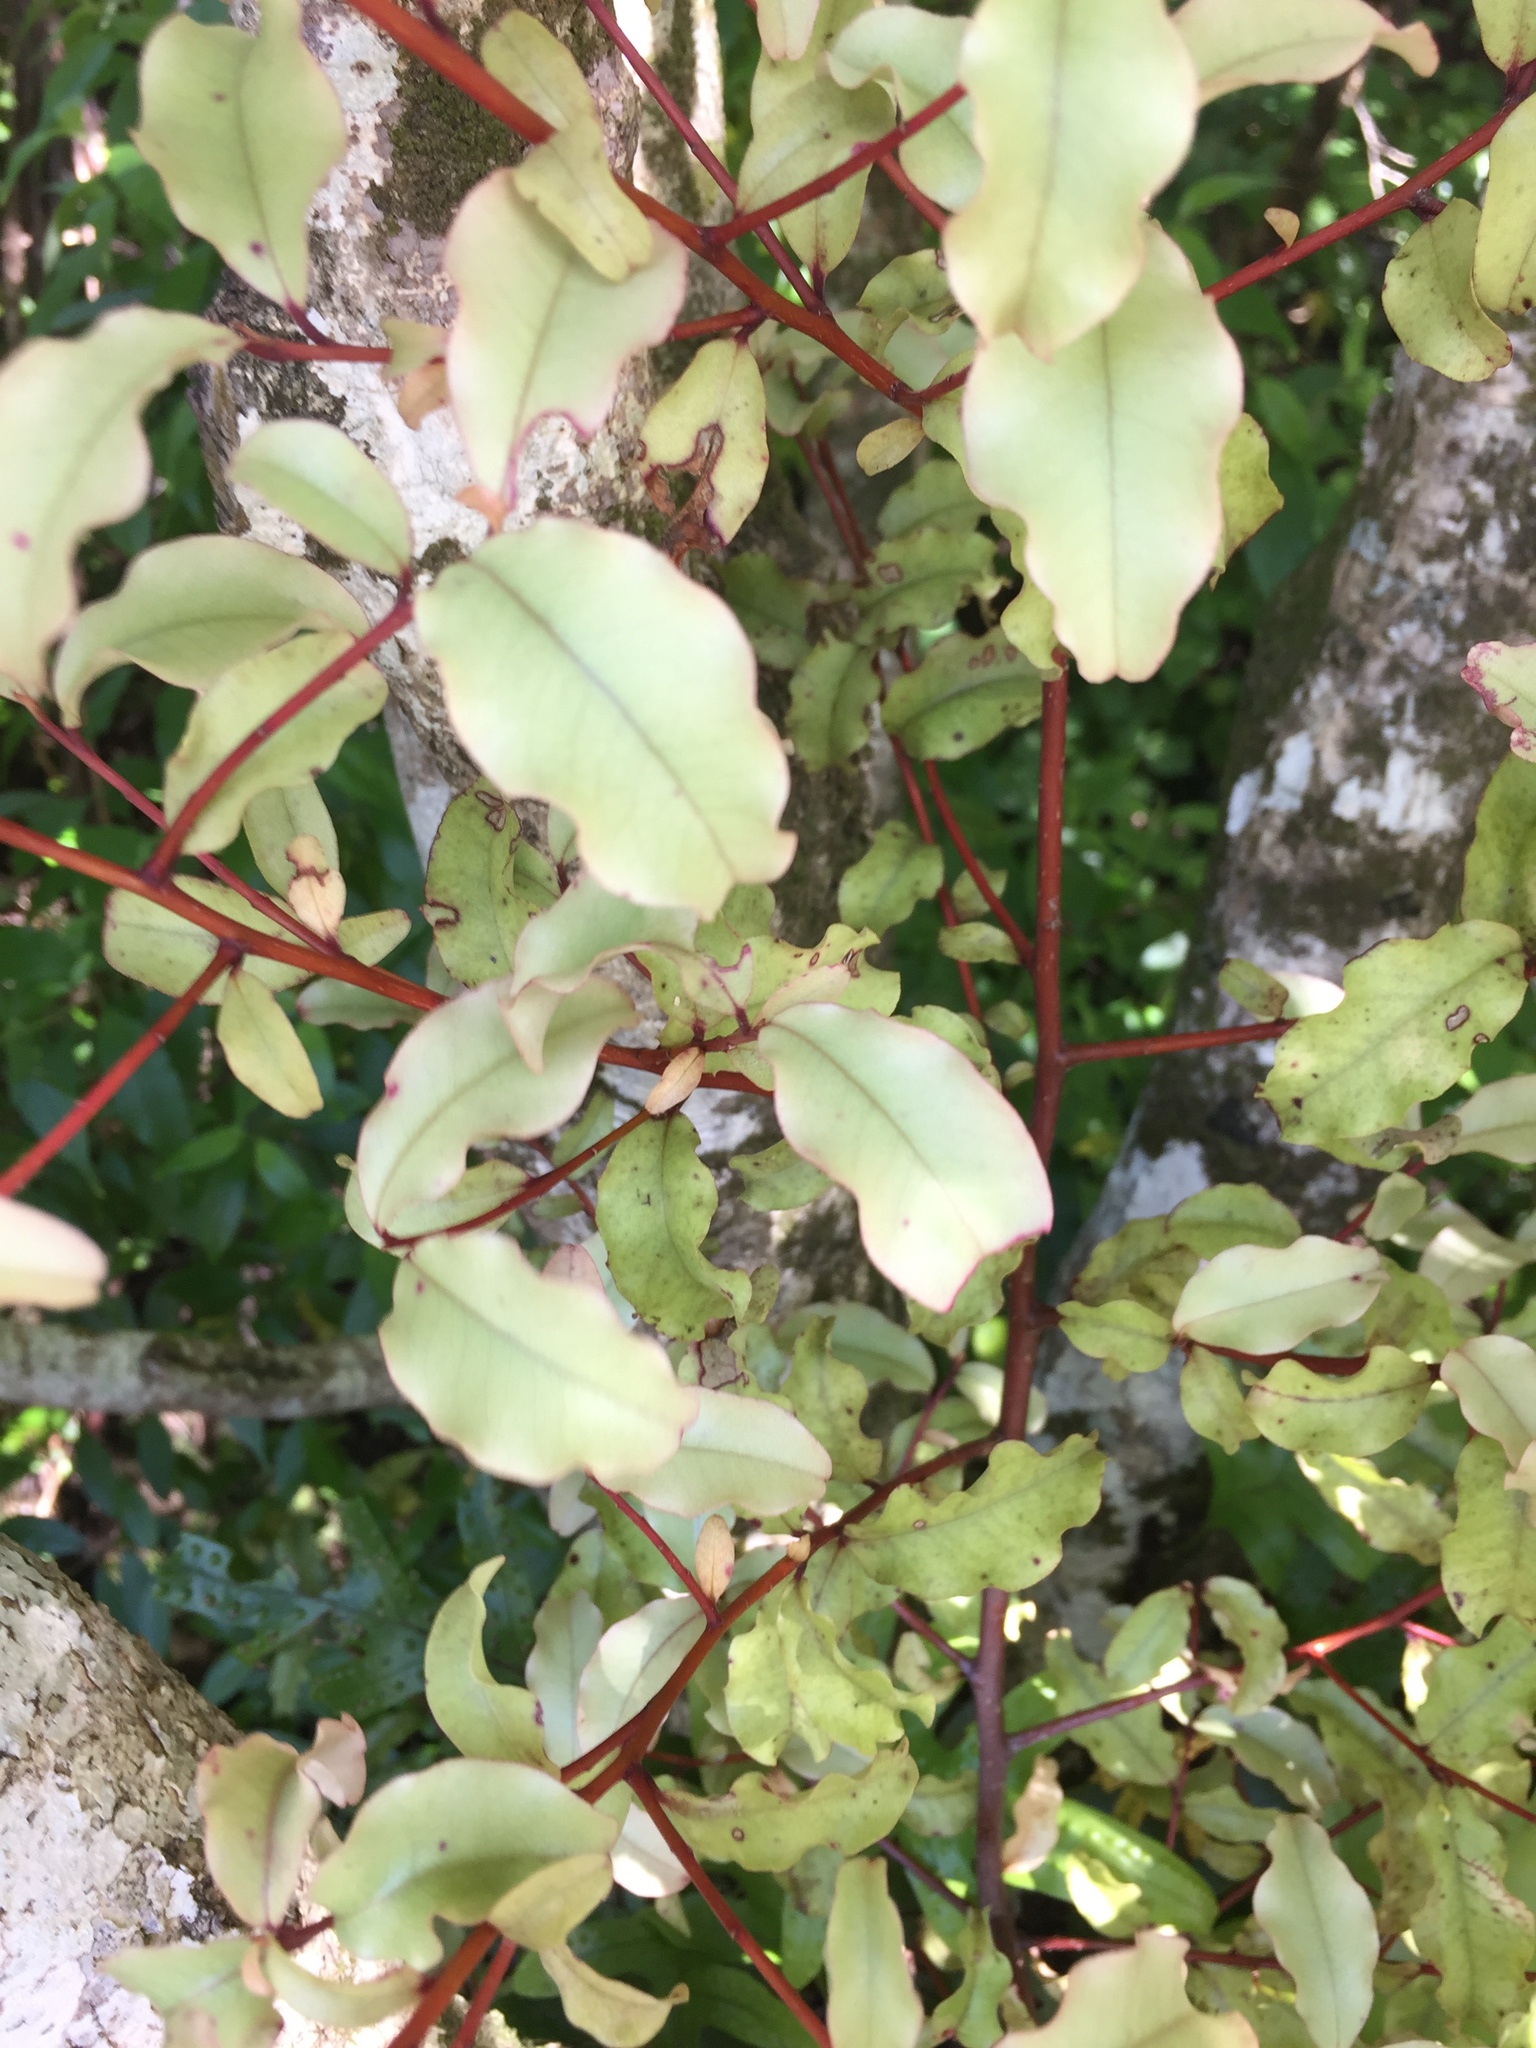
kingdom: Plantae
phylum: Tracheophyta
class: Magnoliopsida
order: Ericales
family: Primulaceae
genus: Myrsine
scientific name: Myrsine australis
